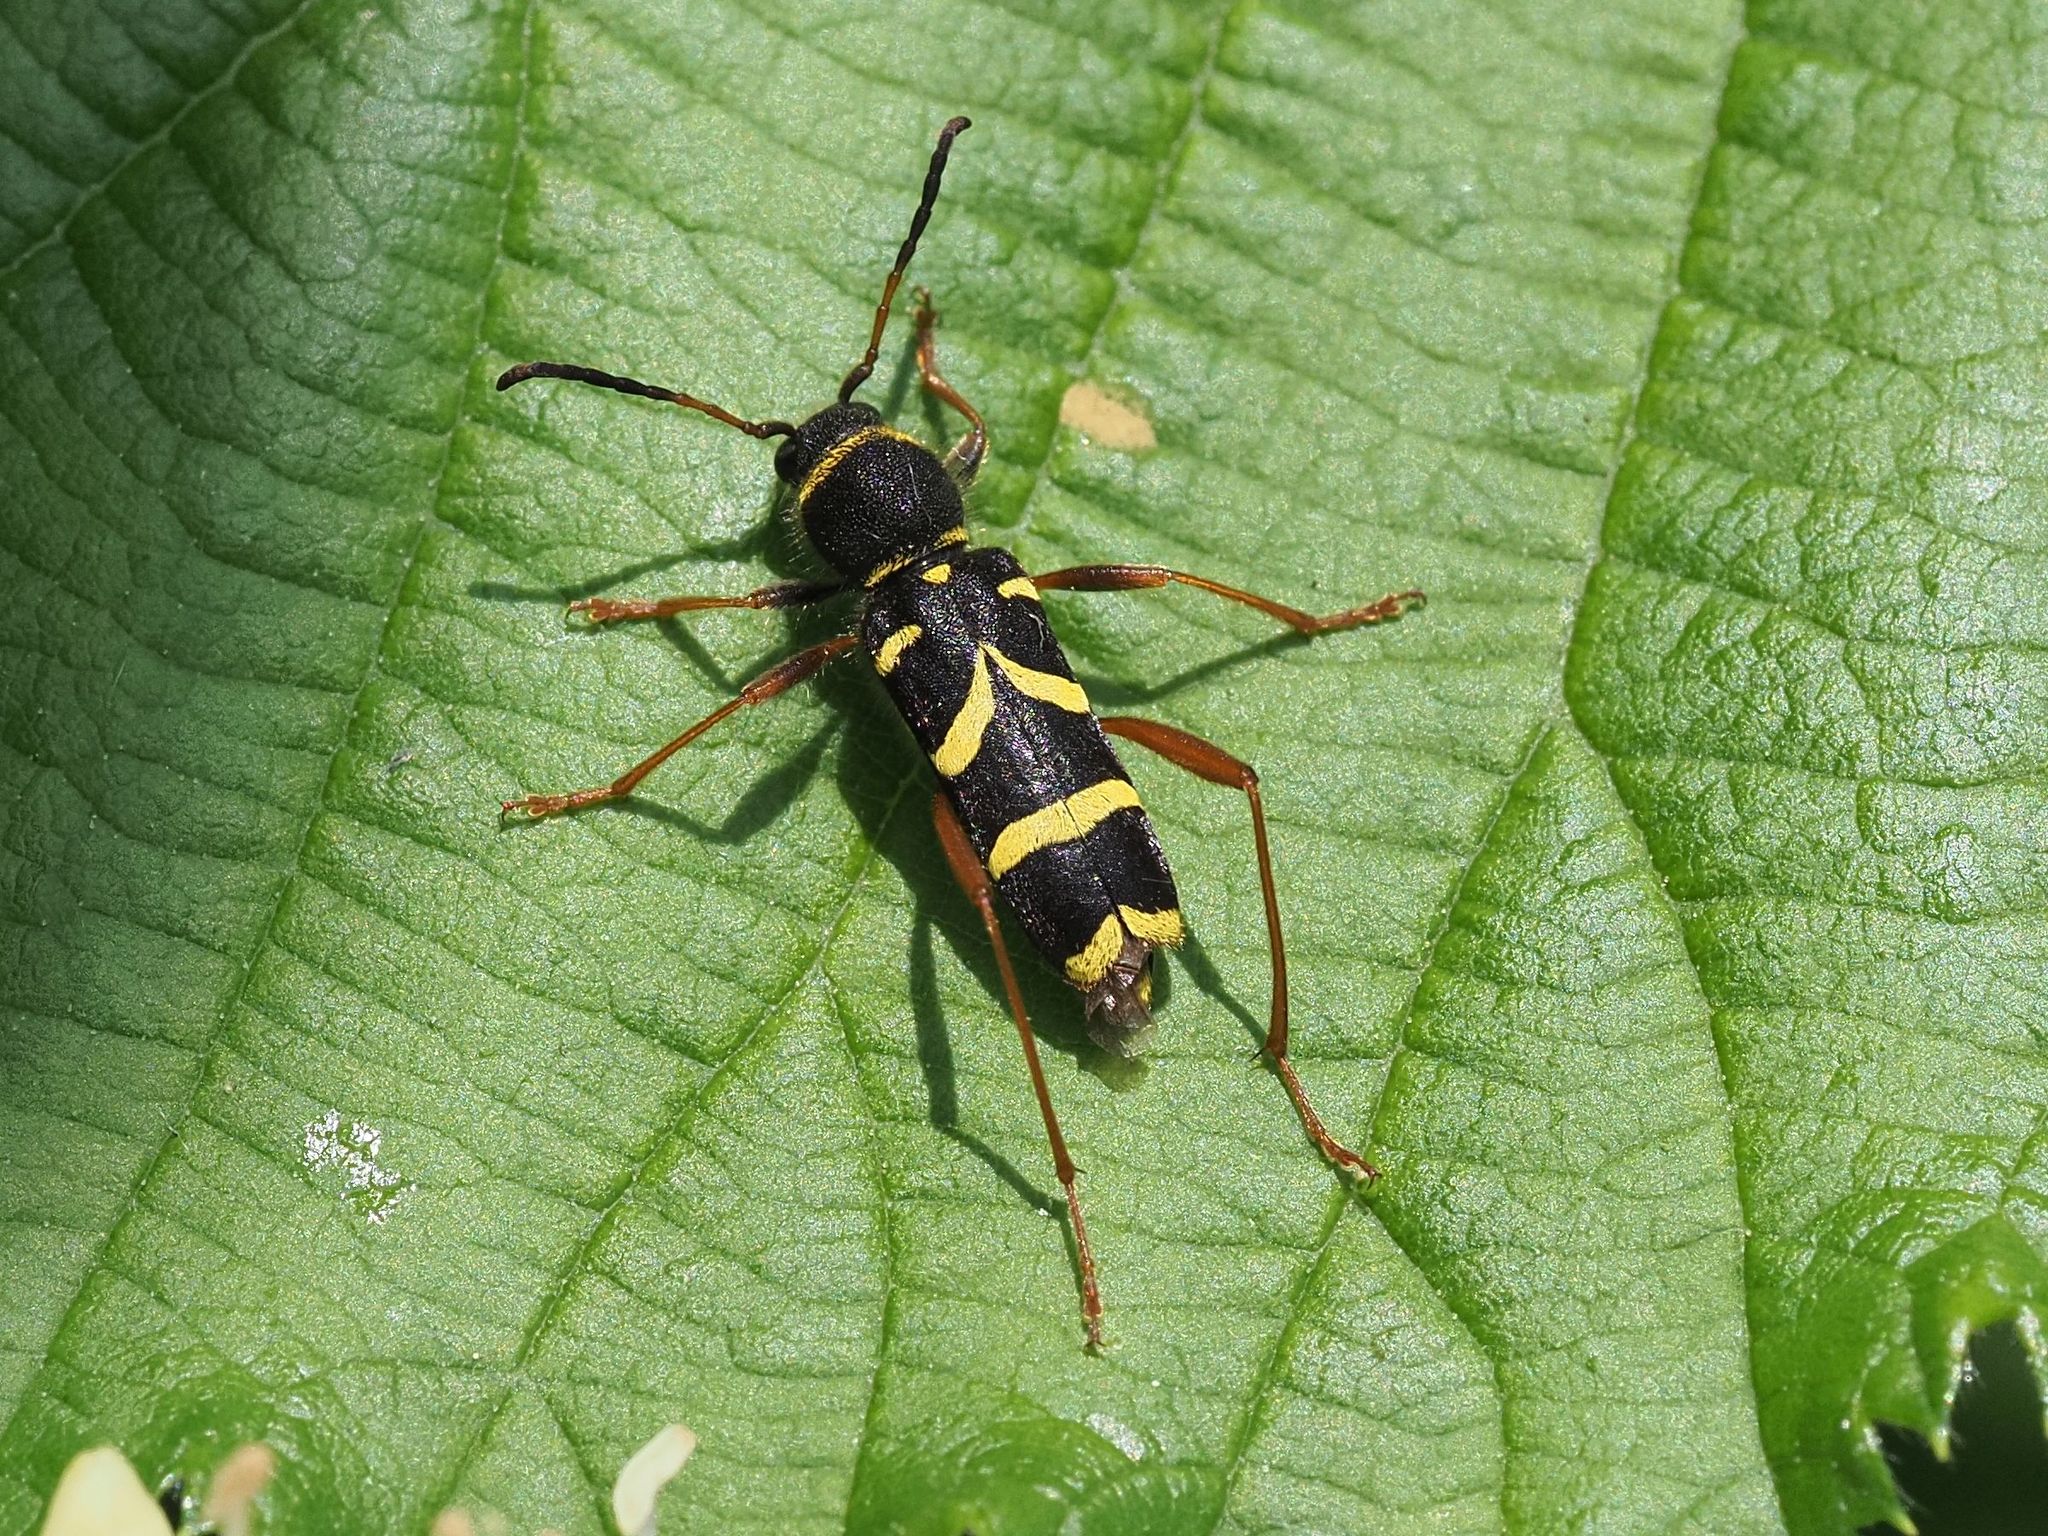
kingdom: Animalia
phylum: Arthropoda
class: Insecta
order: Coleoptera
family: Cerambycidae
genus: Clytus
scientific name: Clytus arietis
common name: Wasp beetle
